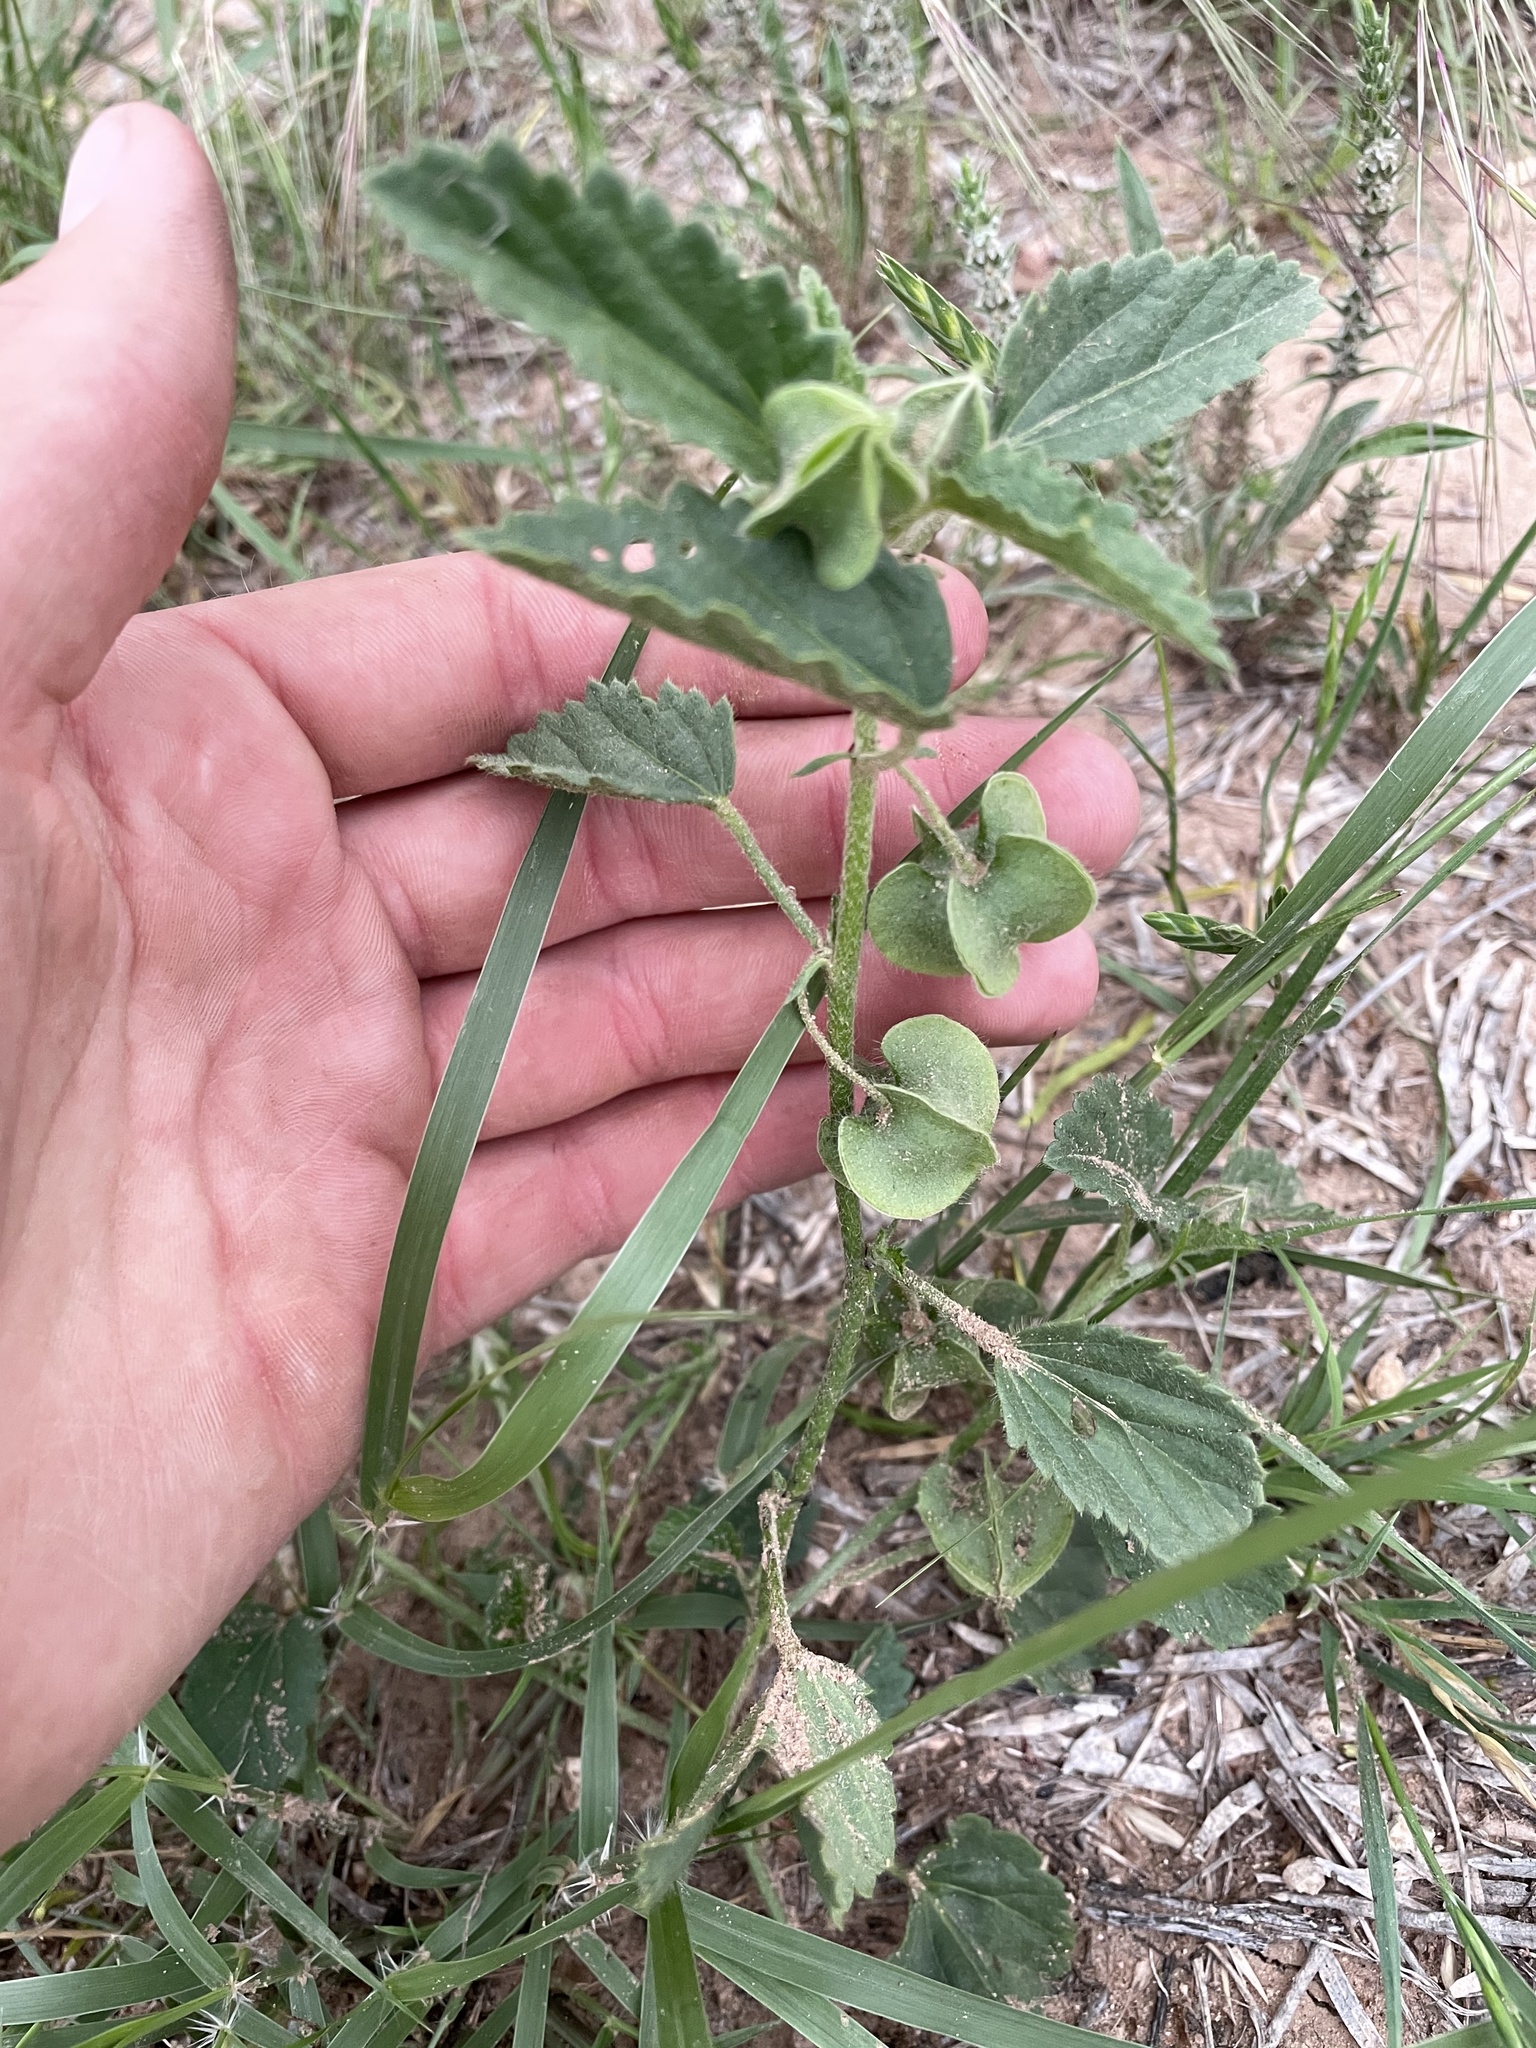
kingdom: Plantae
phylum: Tracheophyta
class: Magnoliopsida
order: Malvales
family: Malvaceae
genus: Rhynchosida
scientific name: Rhynchosida physocalyx
